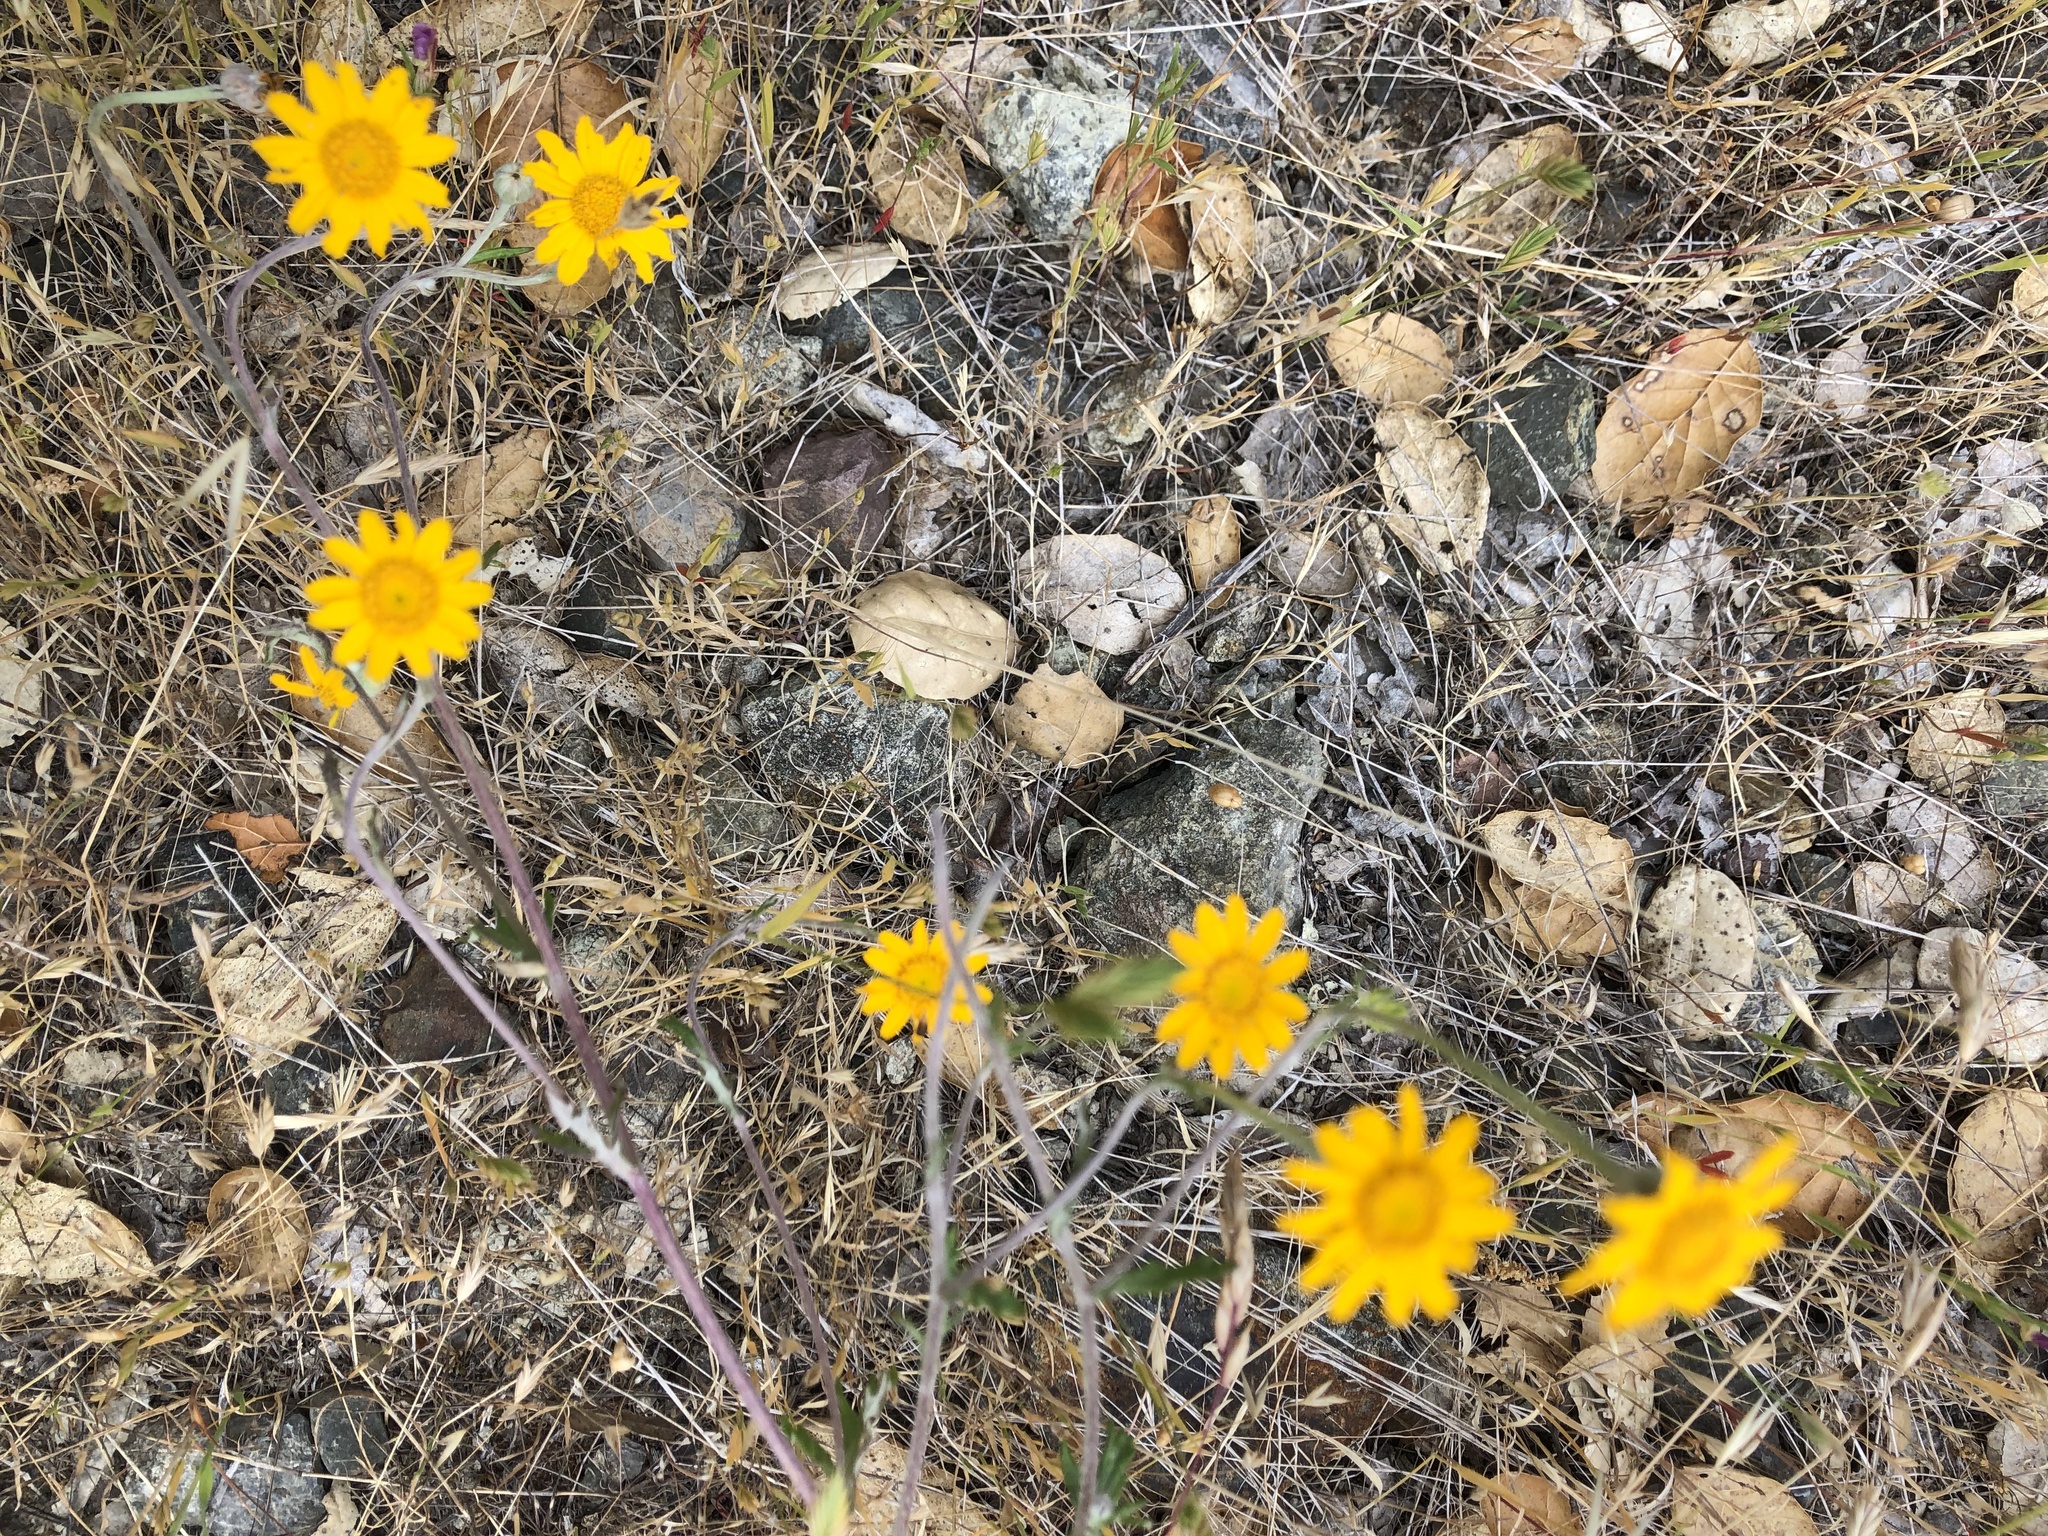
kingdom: Plantae
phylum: Tracheophyta
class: Magnoliopsida
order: Asterales
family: Asteraceae
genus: Eriophyllum
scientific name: Eriophyllum lanatum
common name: Common woolly-sunflower
